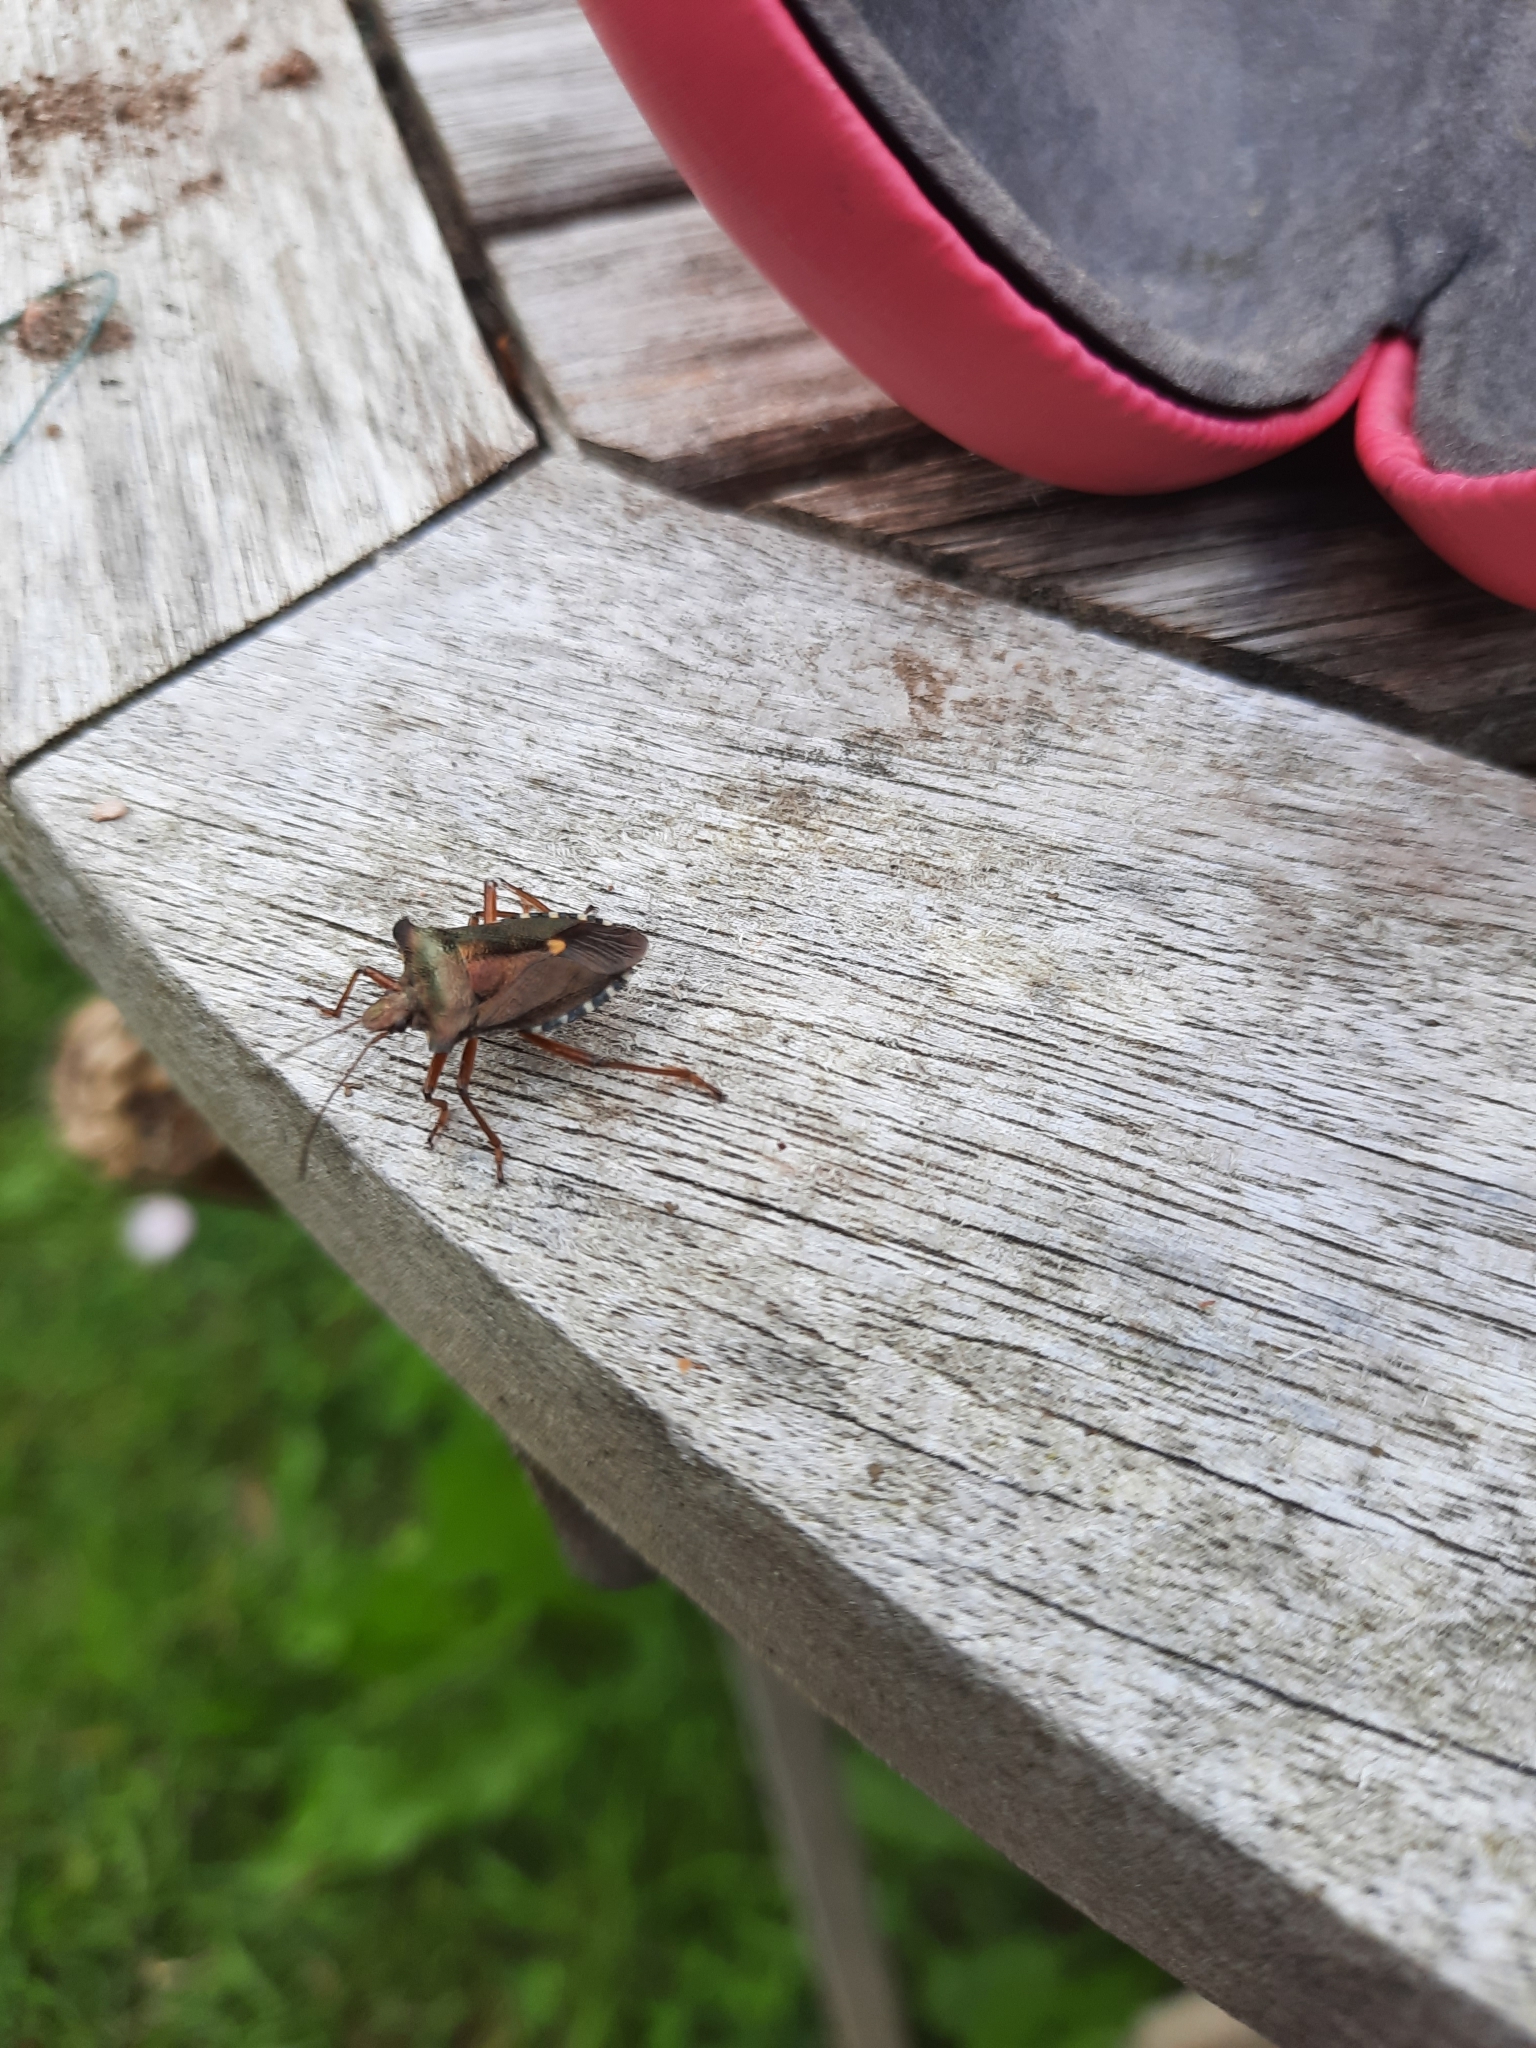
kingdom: Animalia
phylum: Arthropoda
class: Insecta
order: Hemiptera
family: Pentatomidae
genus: Pentatoma
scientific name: Pentatoma rufipes
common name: Forest bug
